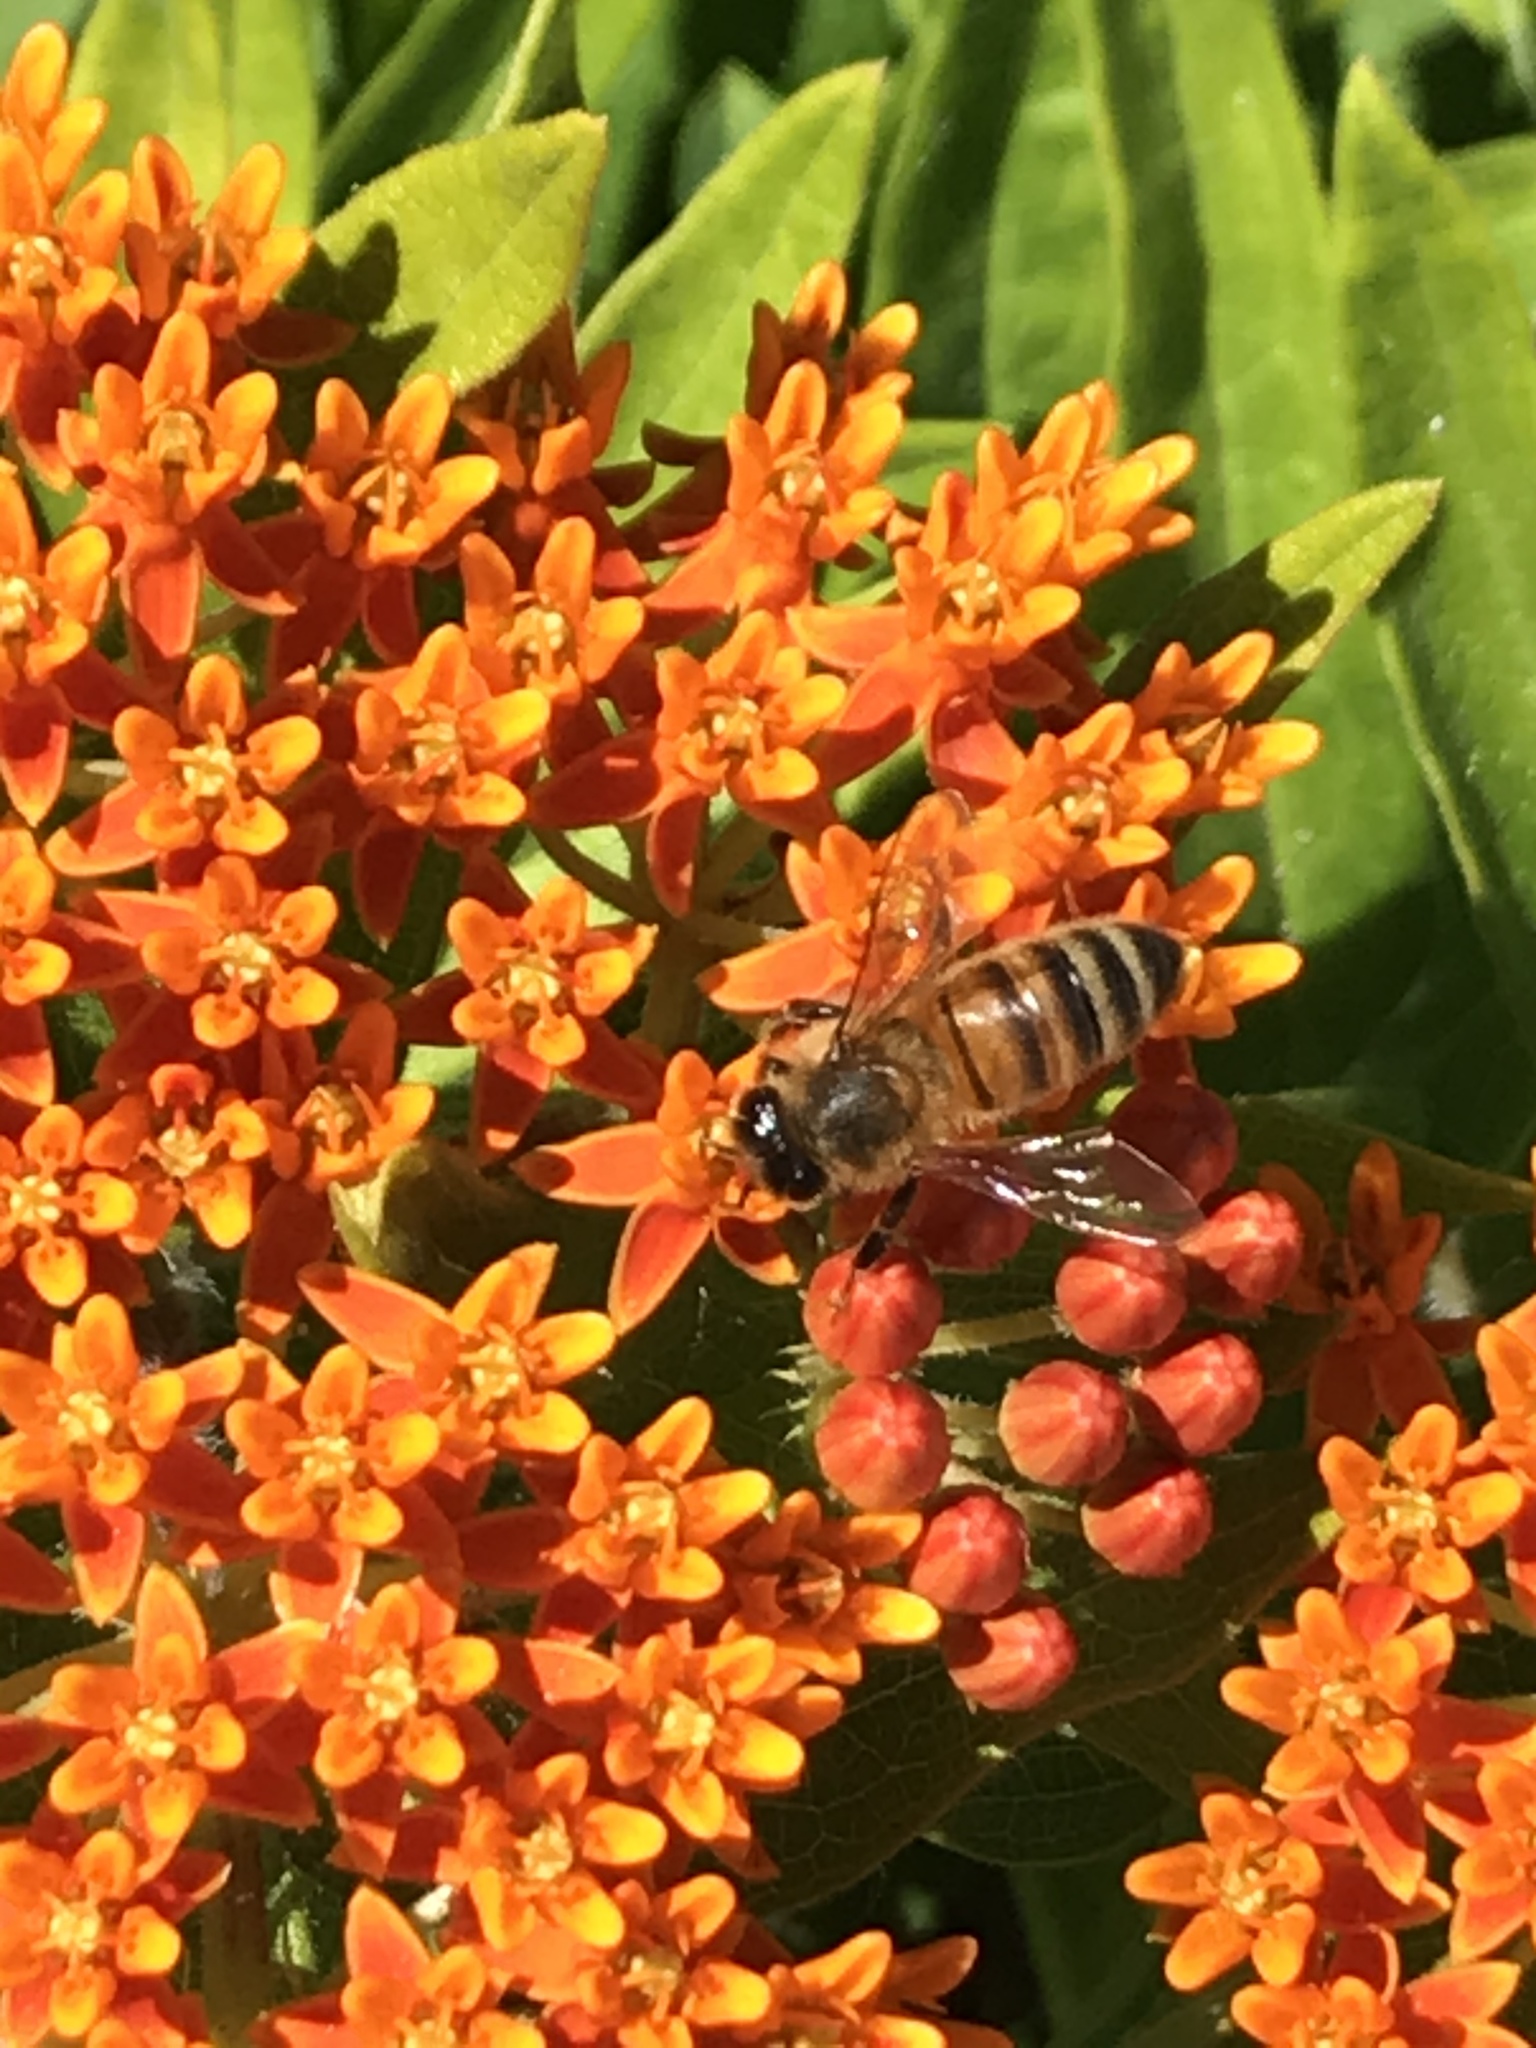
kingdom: Animalia
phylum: Arthropoda
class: Insecta
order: Hymenoptera
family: Apidae
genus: Apis
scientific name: Apis mellifera
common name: Honey bee
